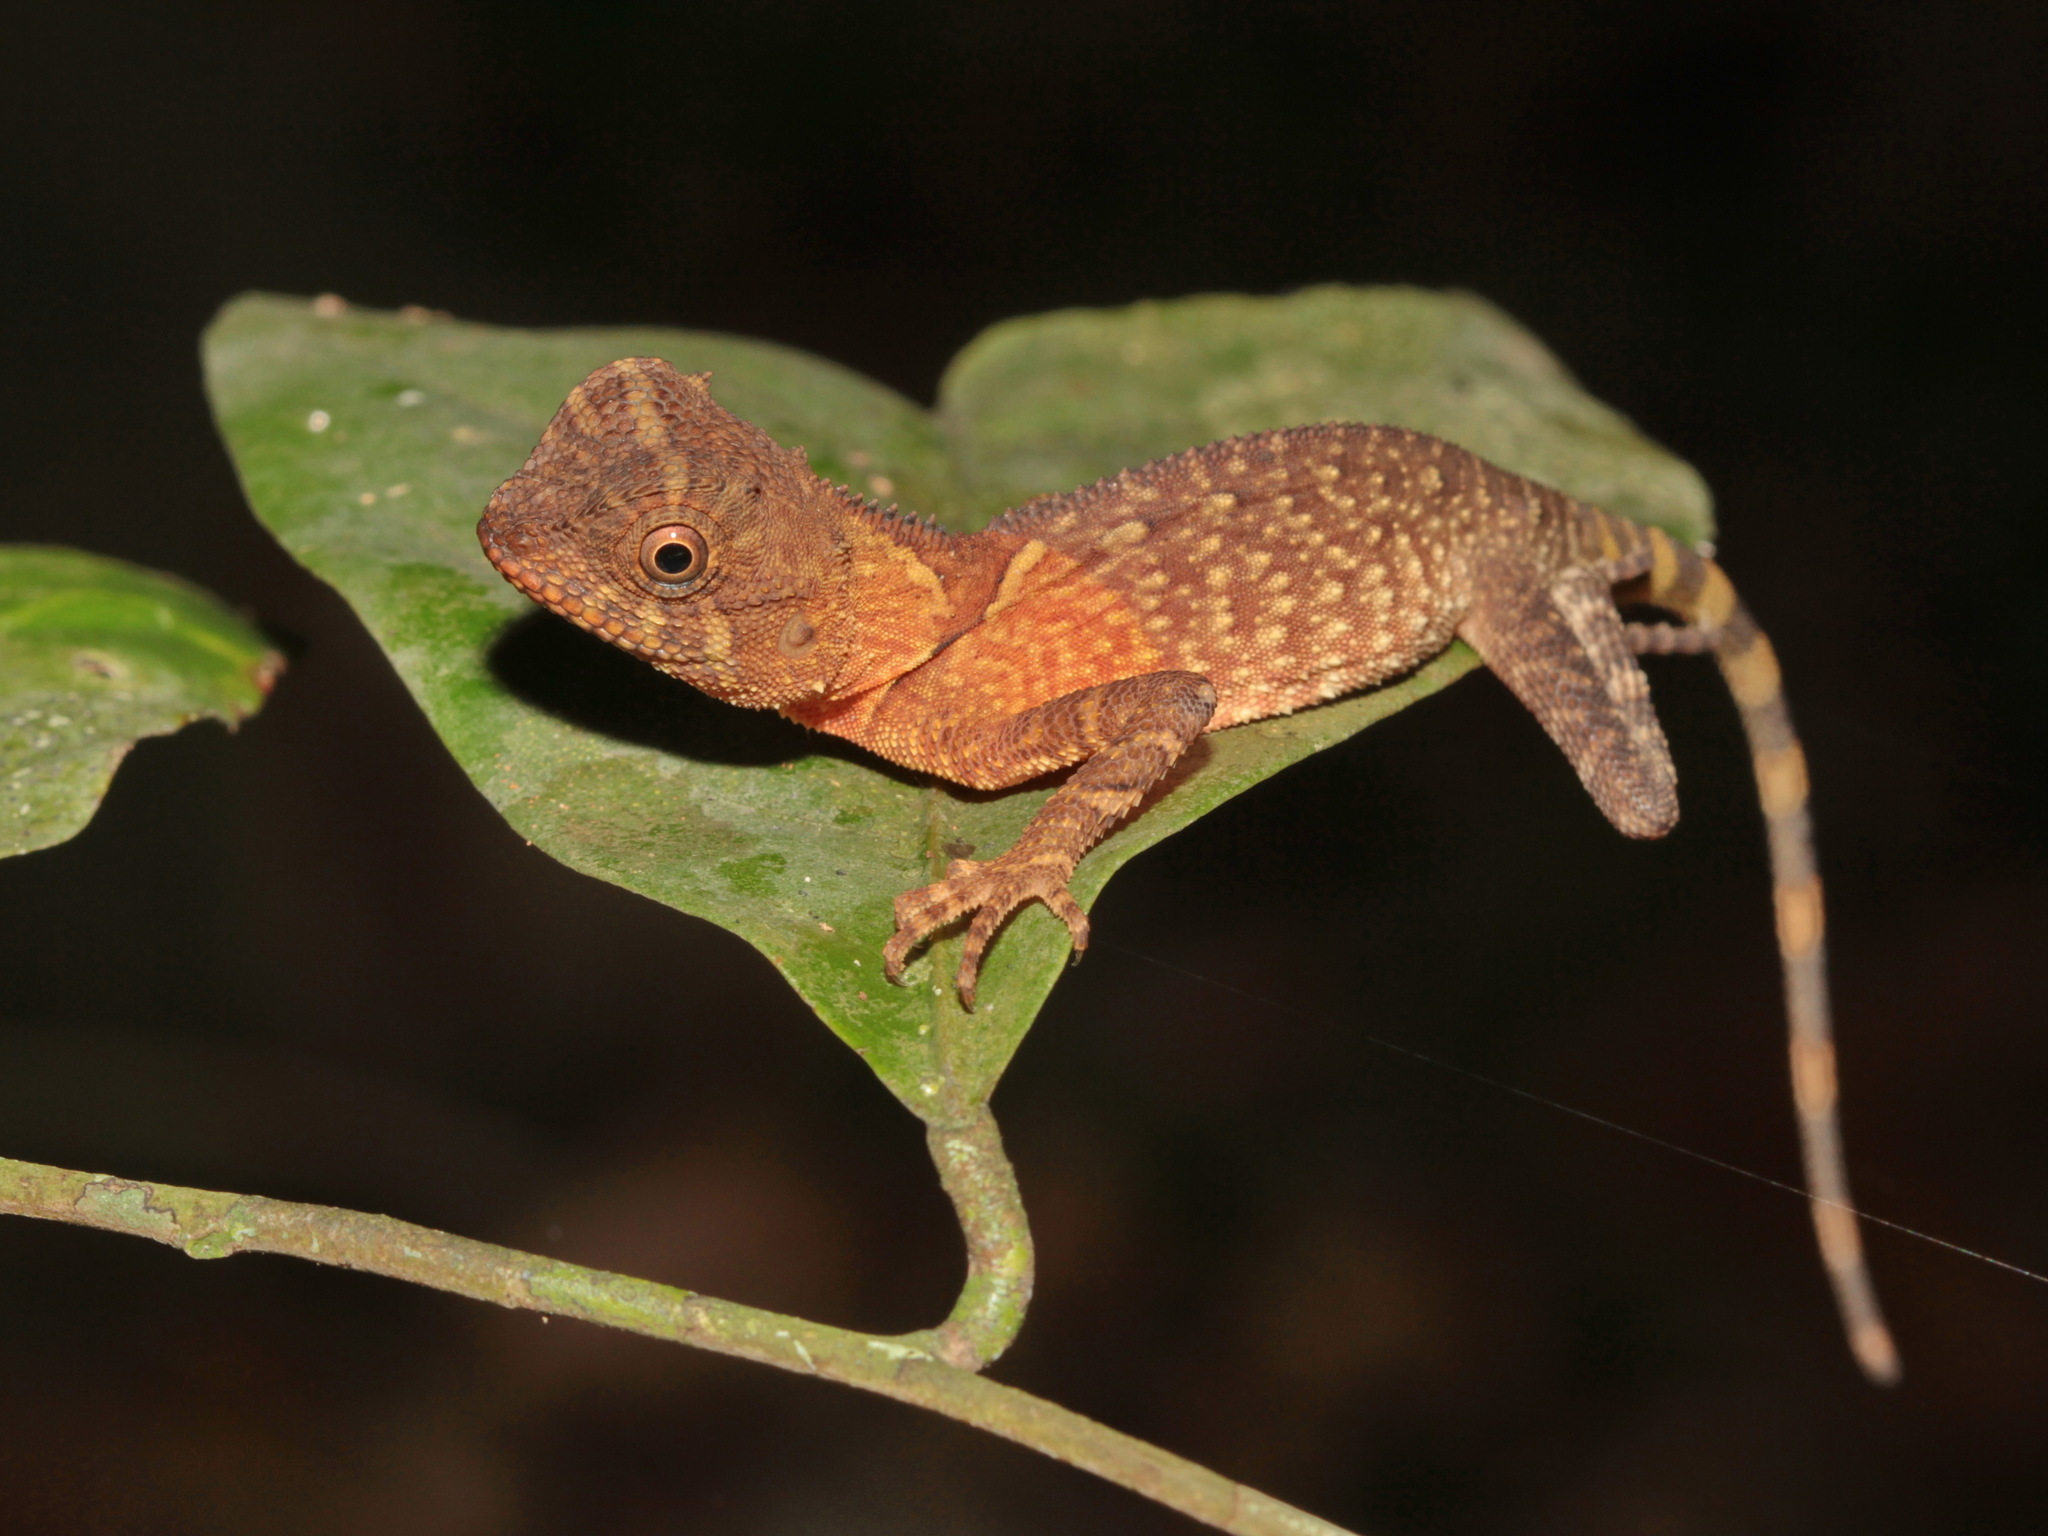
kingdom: Animalia
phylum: Chordata
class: Squamata
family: Agamidae
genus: Acanthosaura
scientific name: Acanthosaura phuketensis
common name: Phuket horned tree agamid
